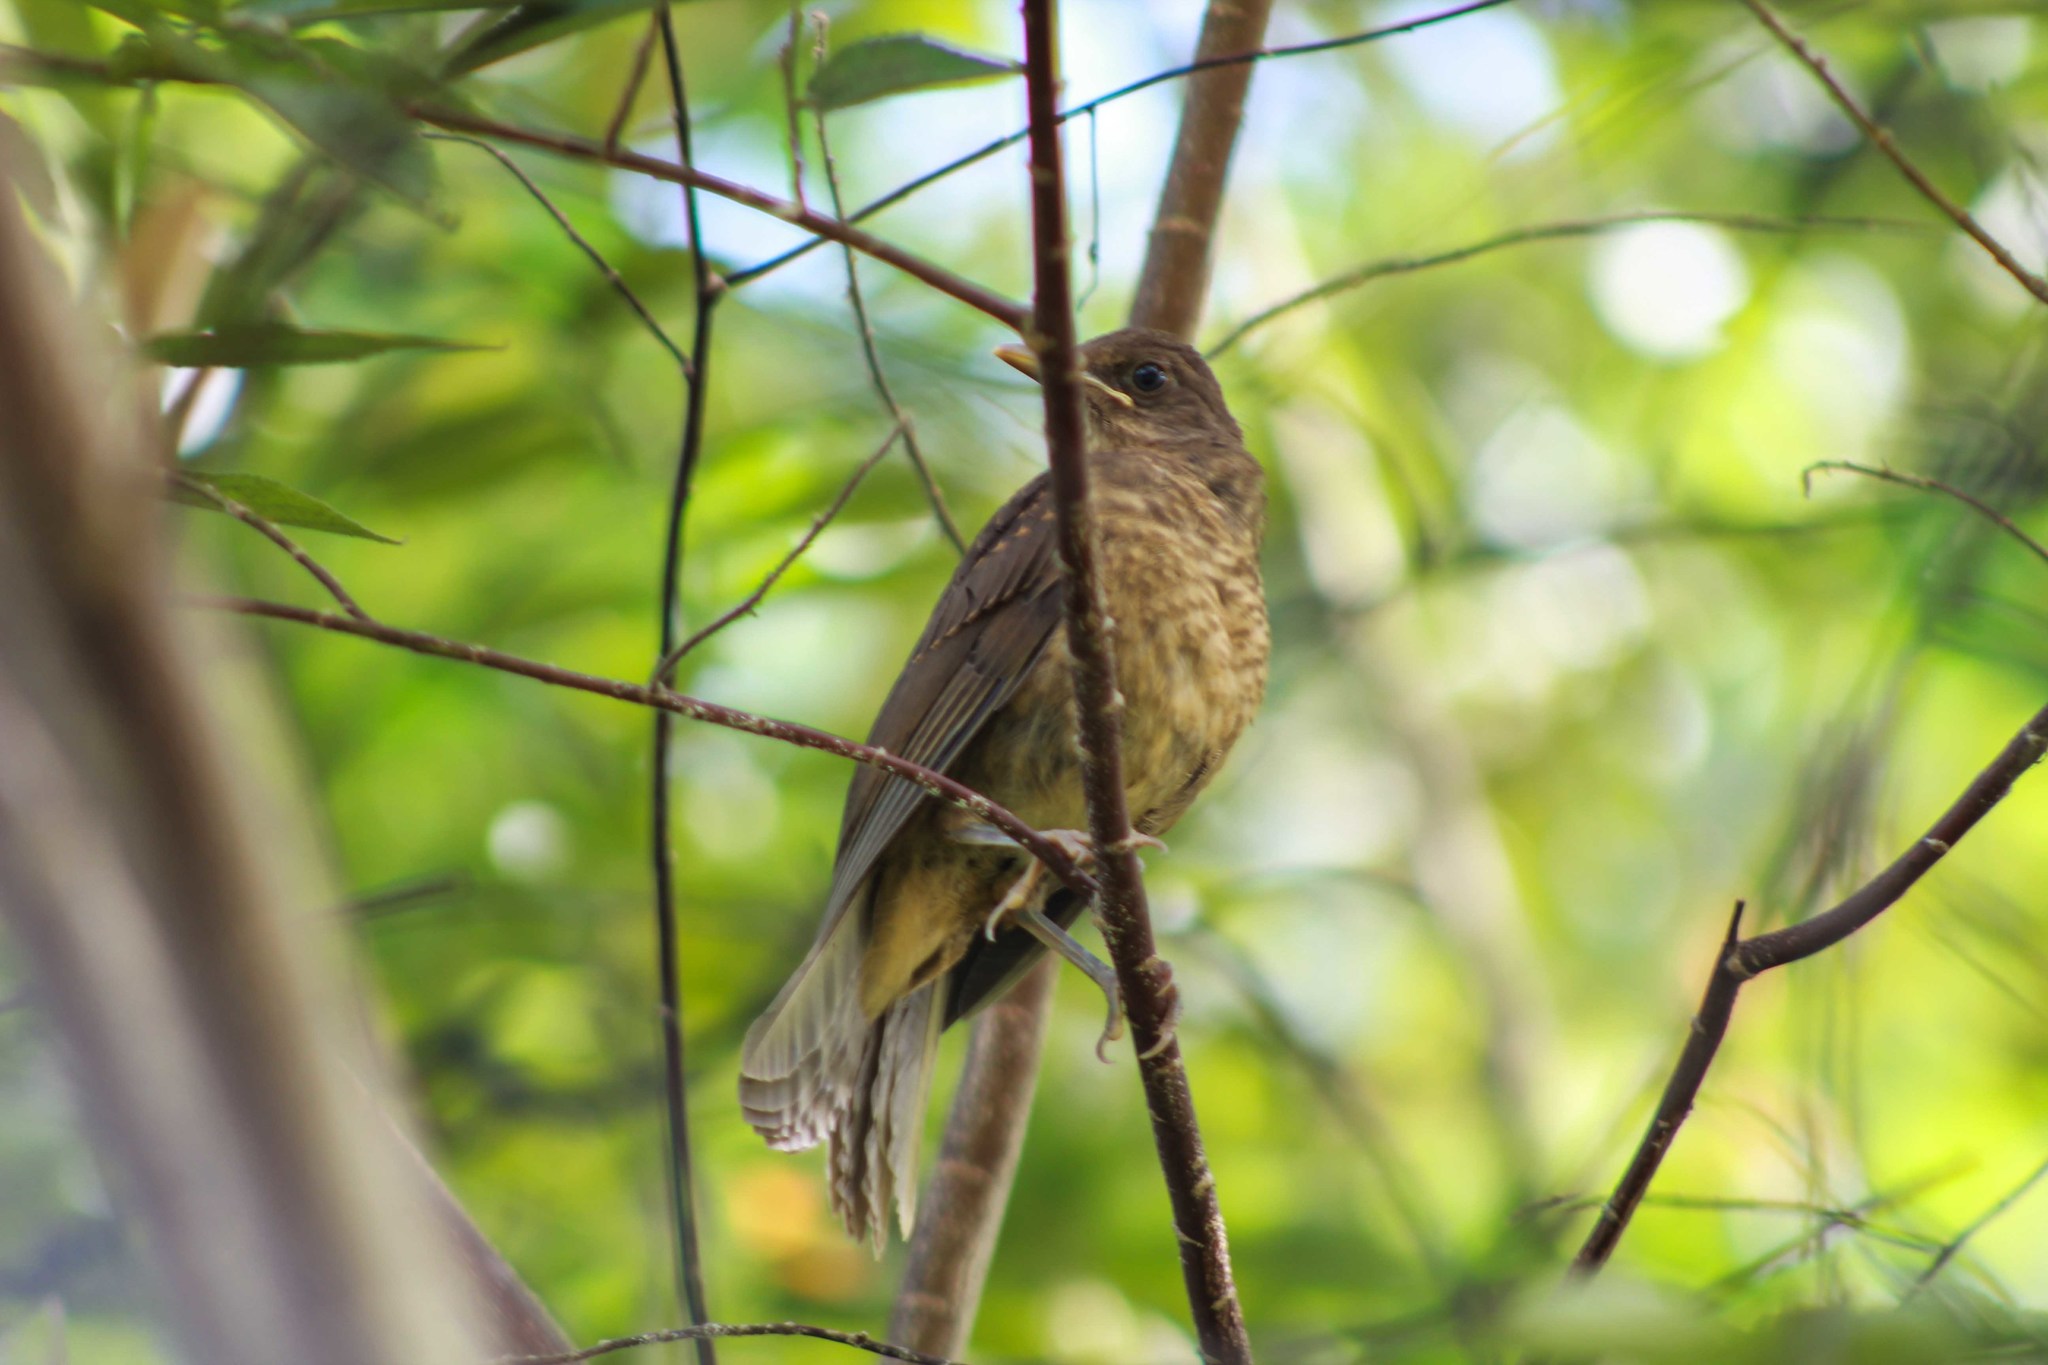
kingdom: Animalia
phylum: Chordata
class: Aves
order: Passeriformes
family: Turdidae
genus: Turdus
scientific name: Turdus grayi
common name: Clay-colored thrush
